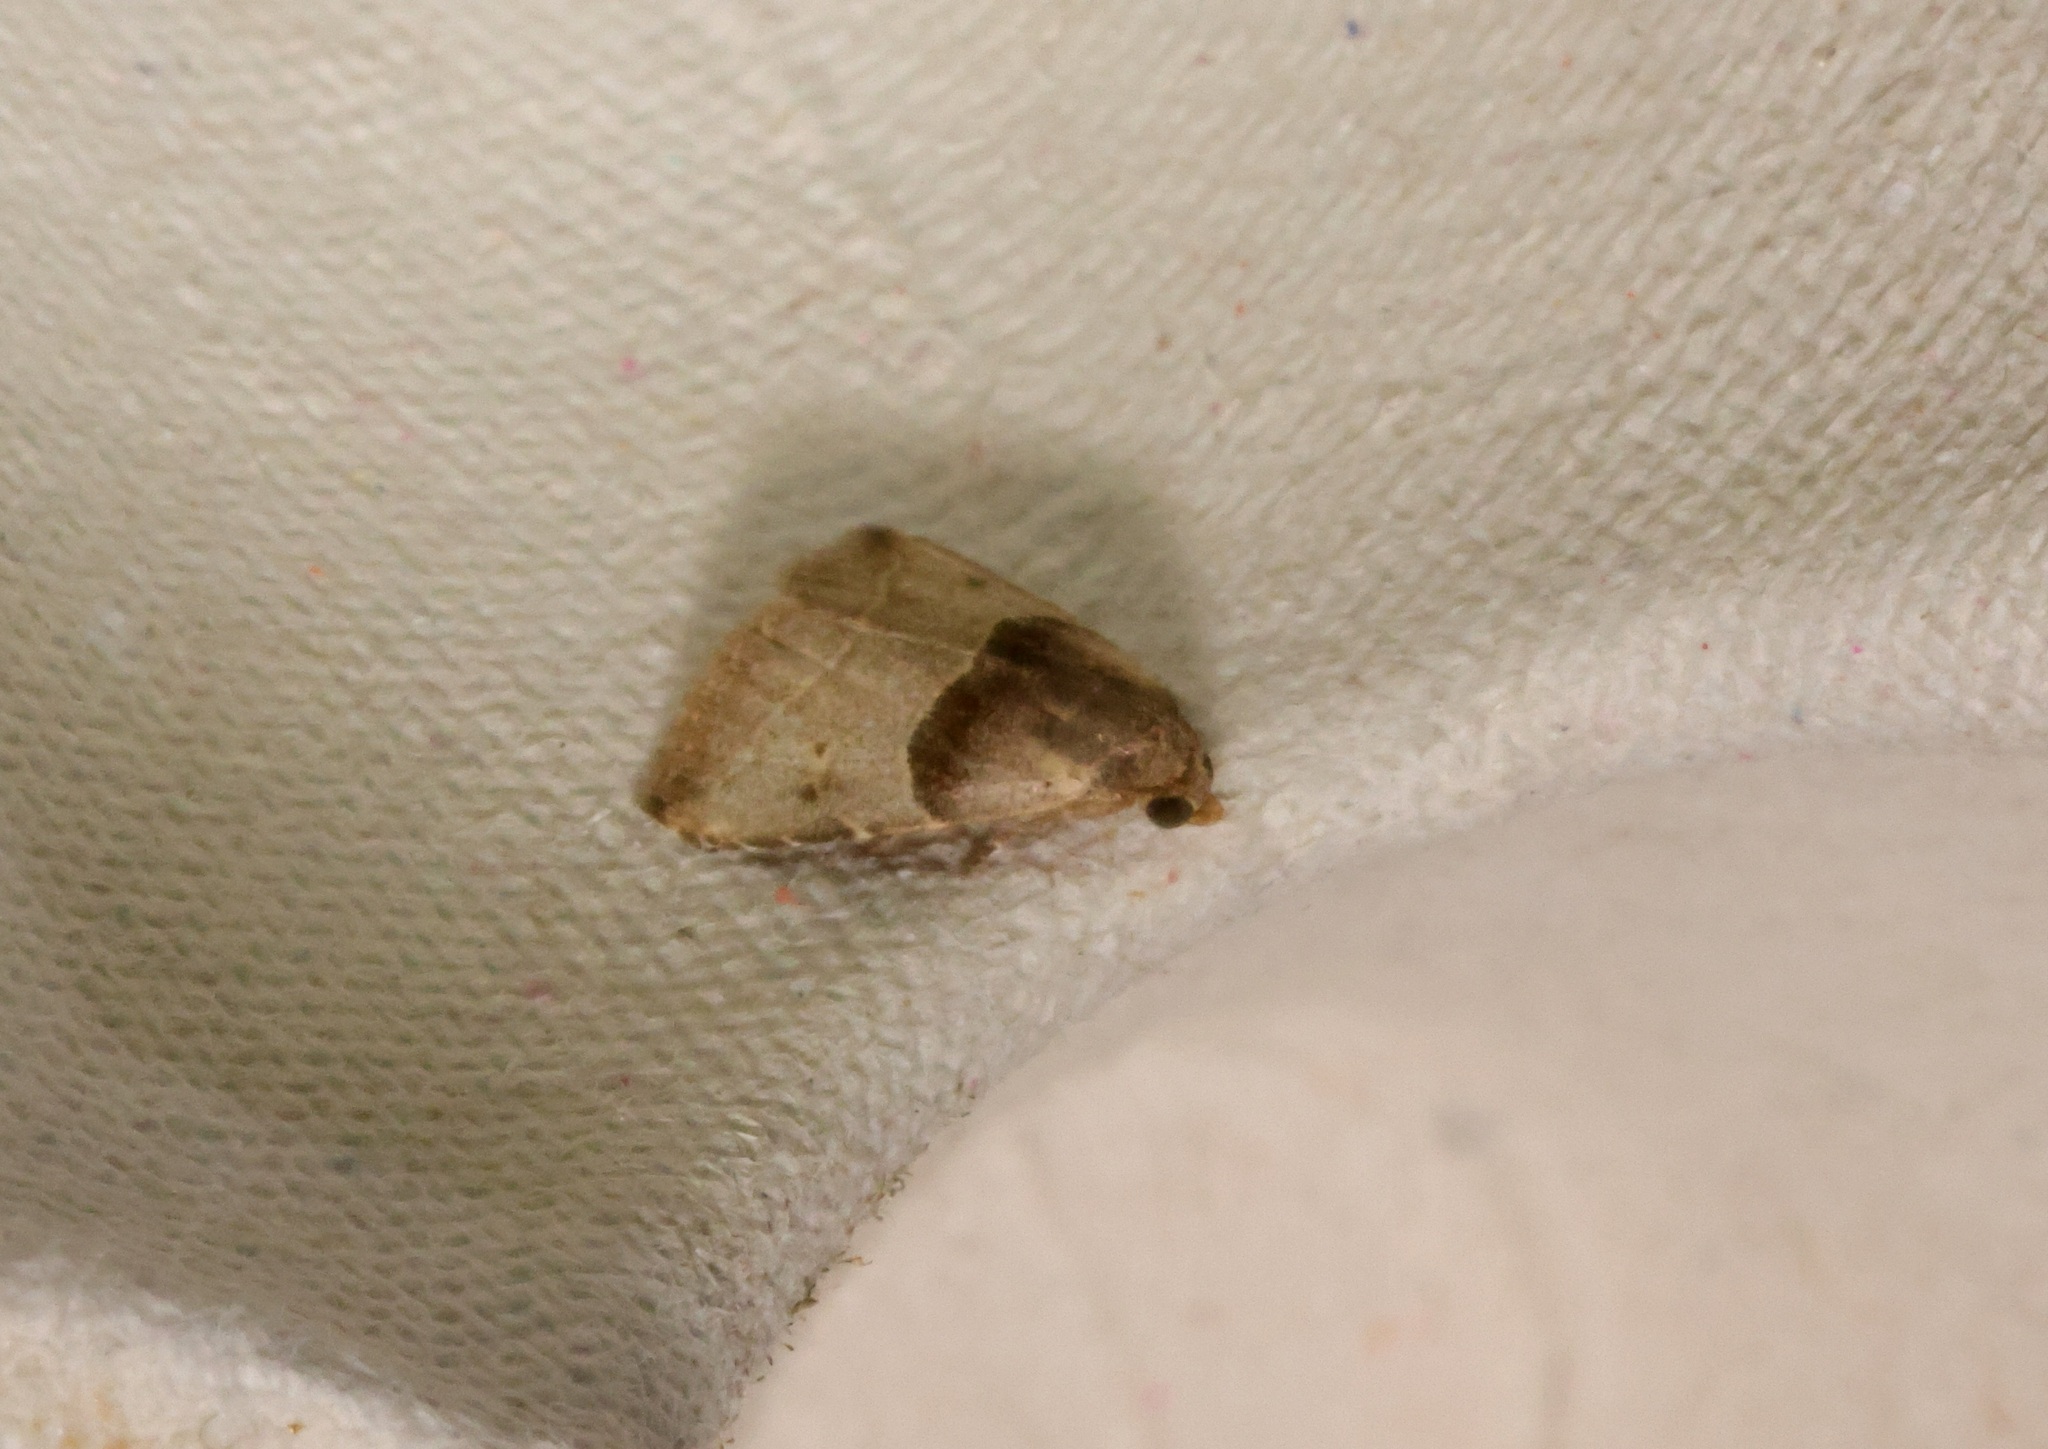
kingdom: Animalia
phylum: Arthropoda
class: Insecta
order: Lepidoptera
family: Erebidae
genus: Rivula
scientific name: Rivula basalis
